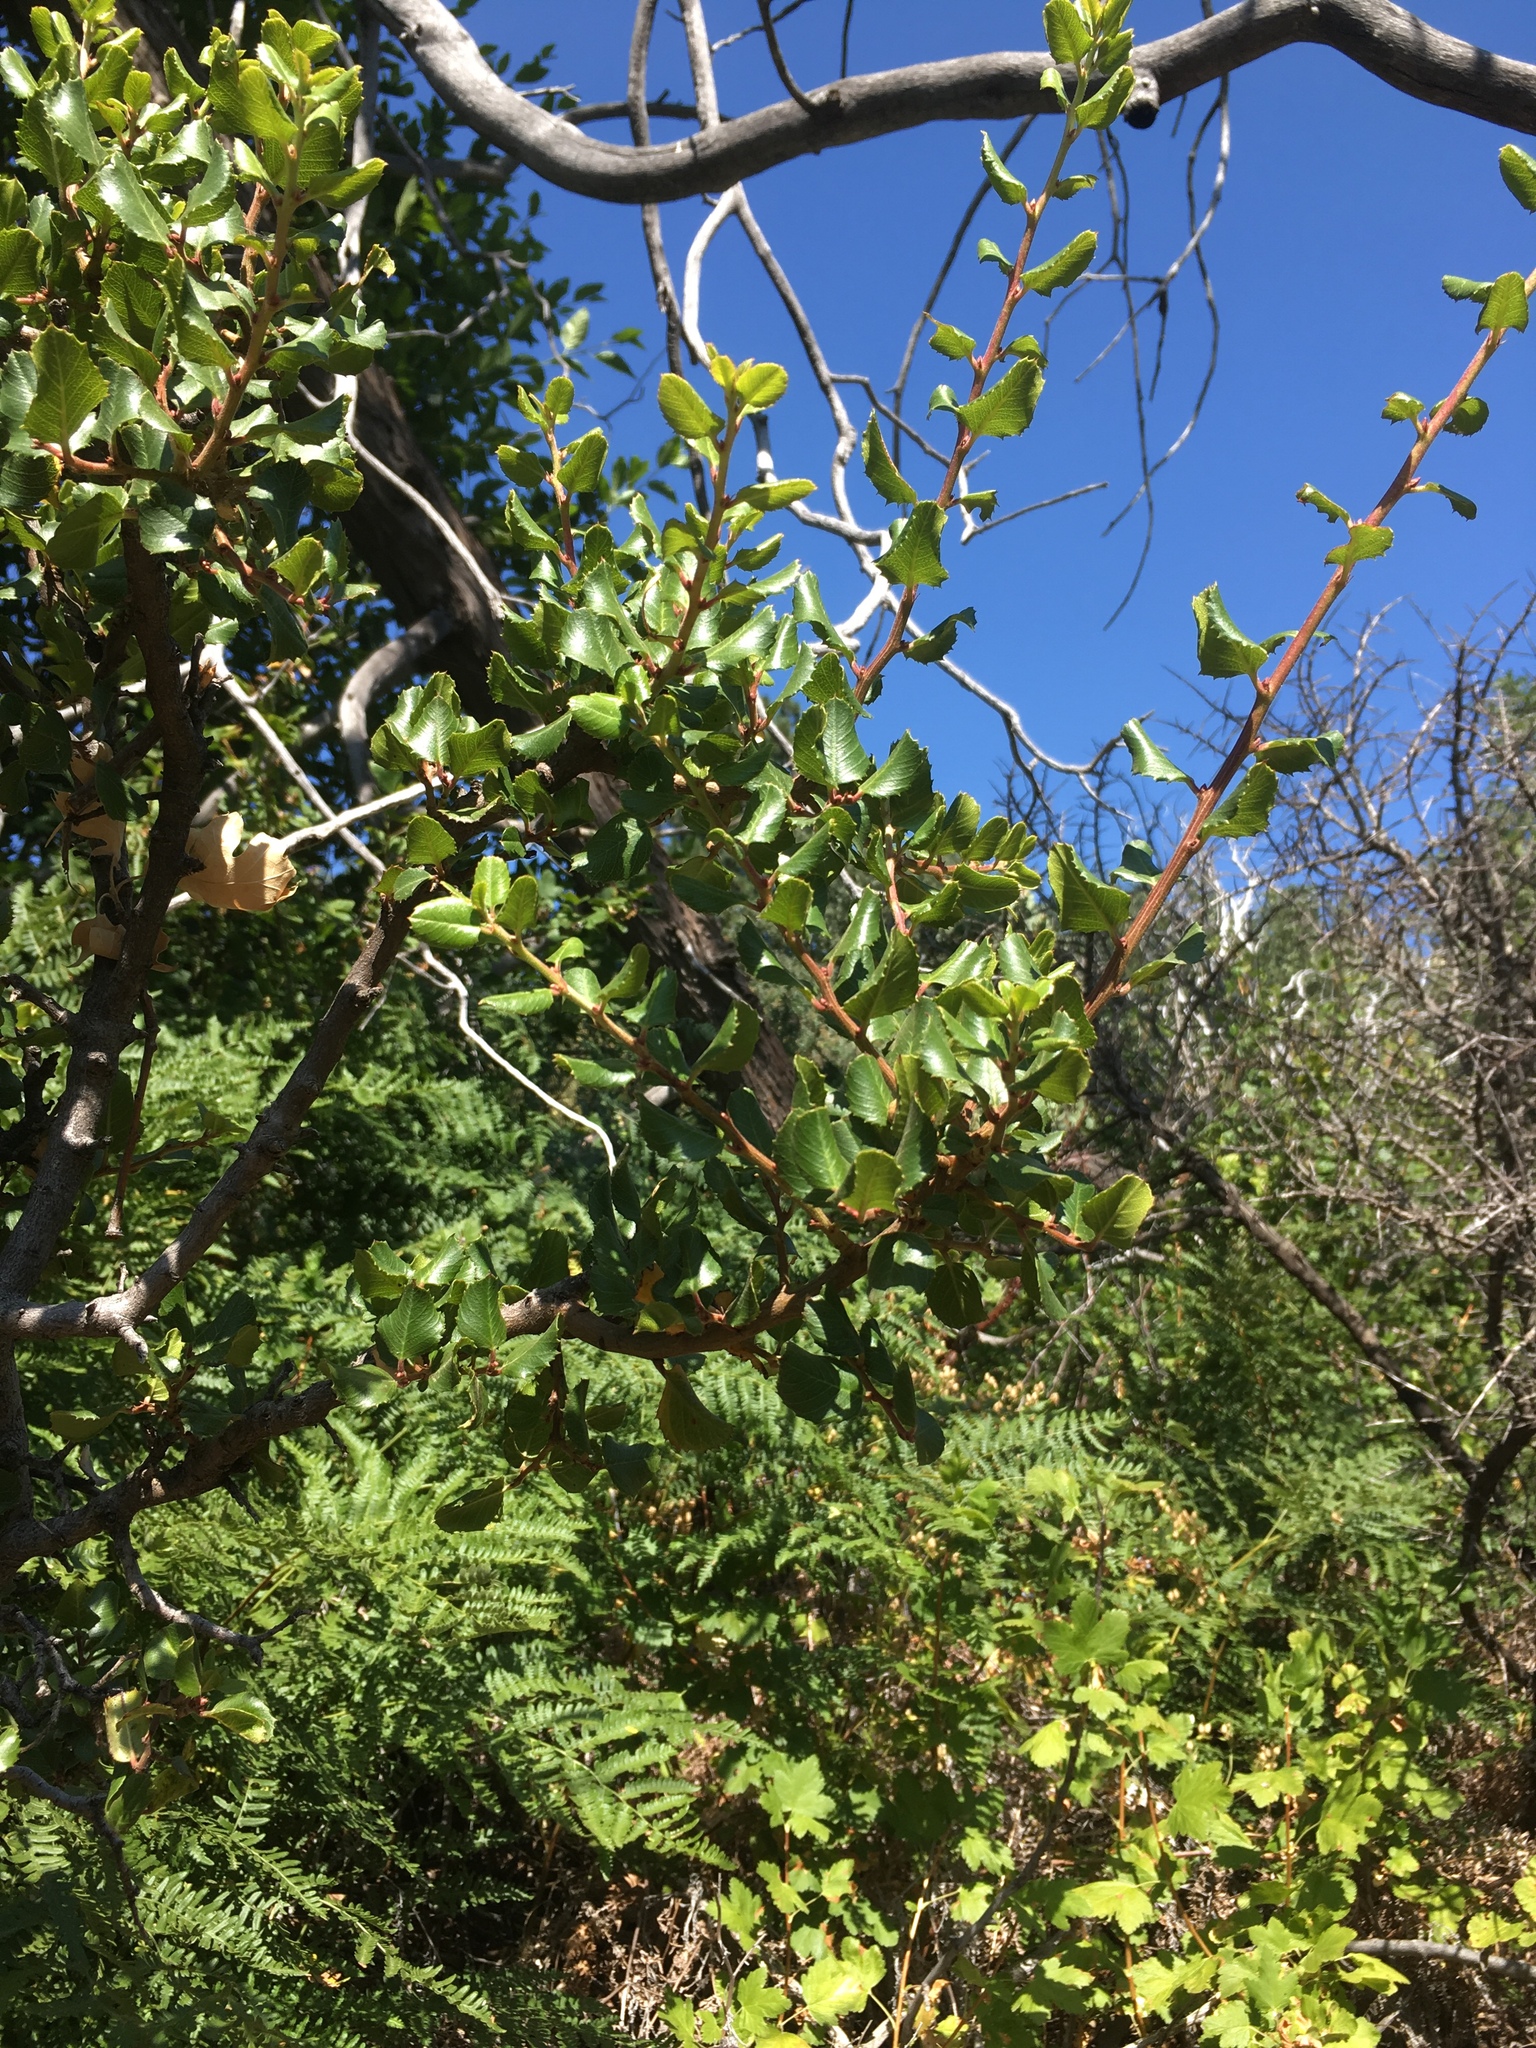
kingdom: Plantae
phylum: Tracheophyta
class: Magnoliopsida
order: Rosales
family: Rhamnaceae
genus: Endotropis
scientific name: Endotropis crocea
